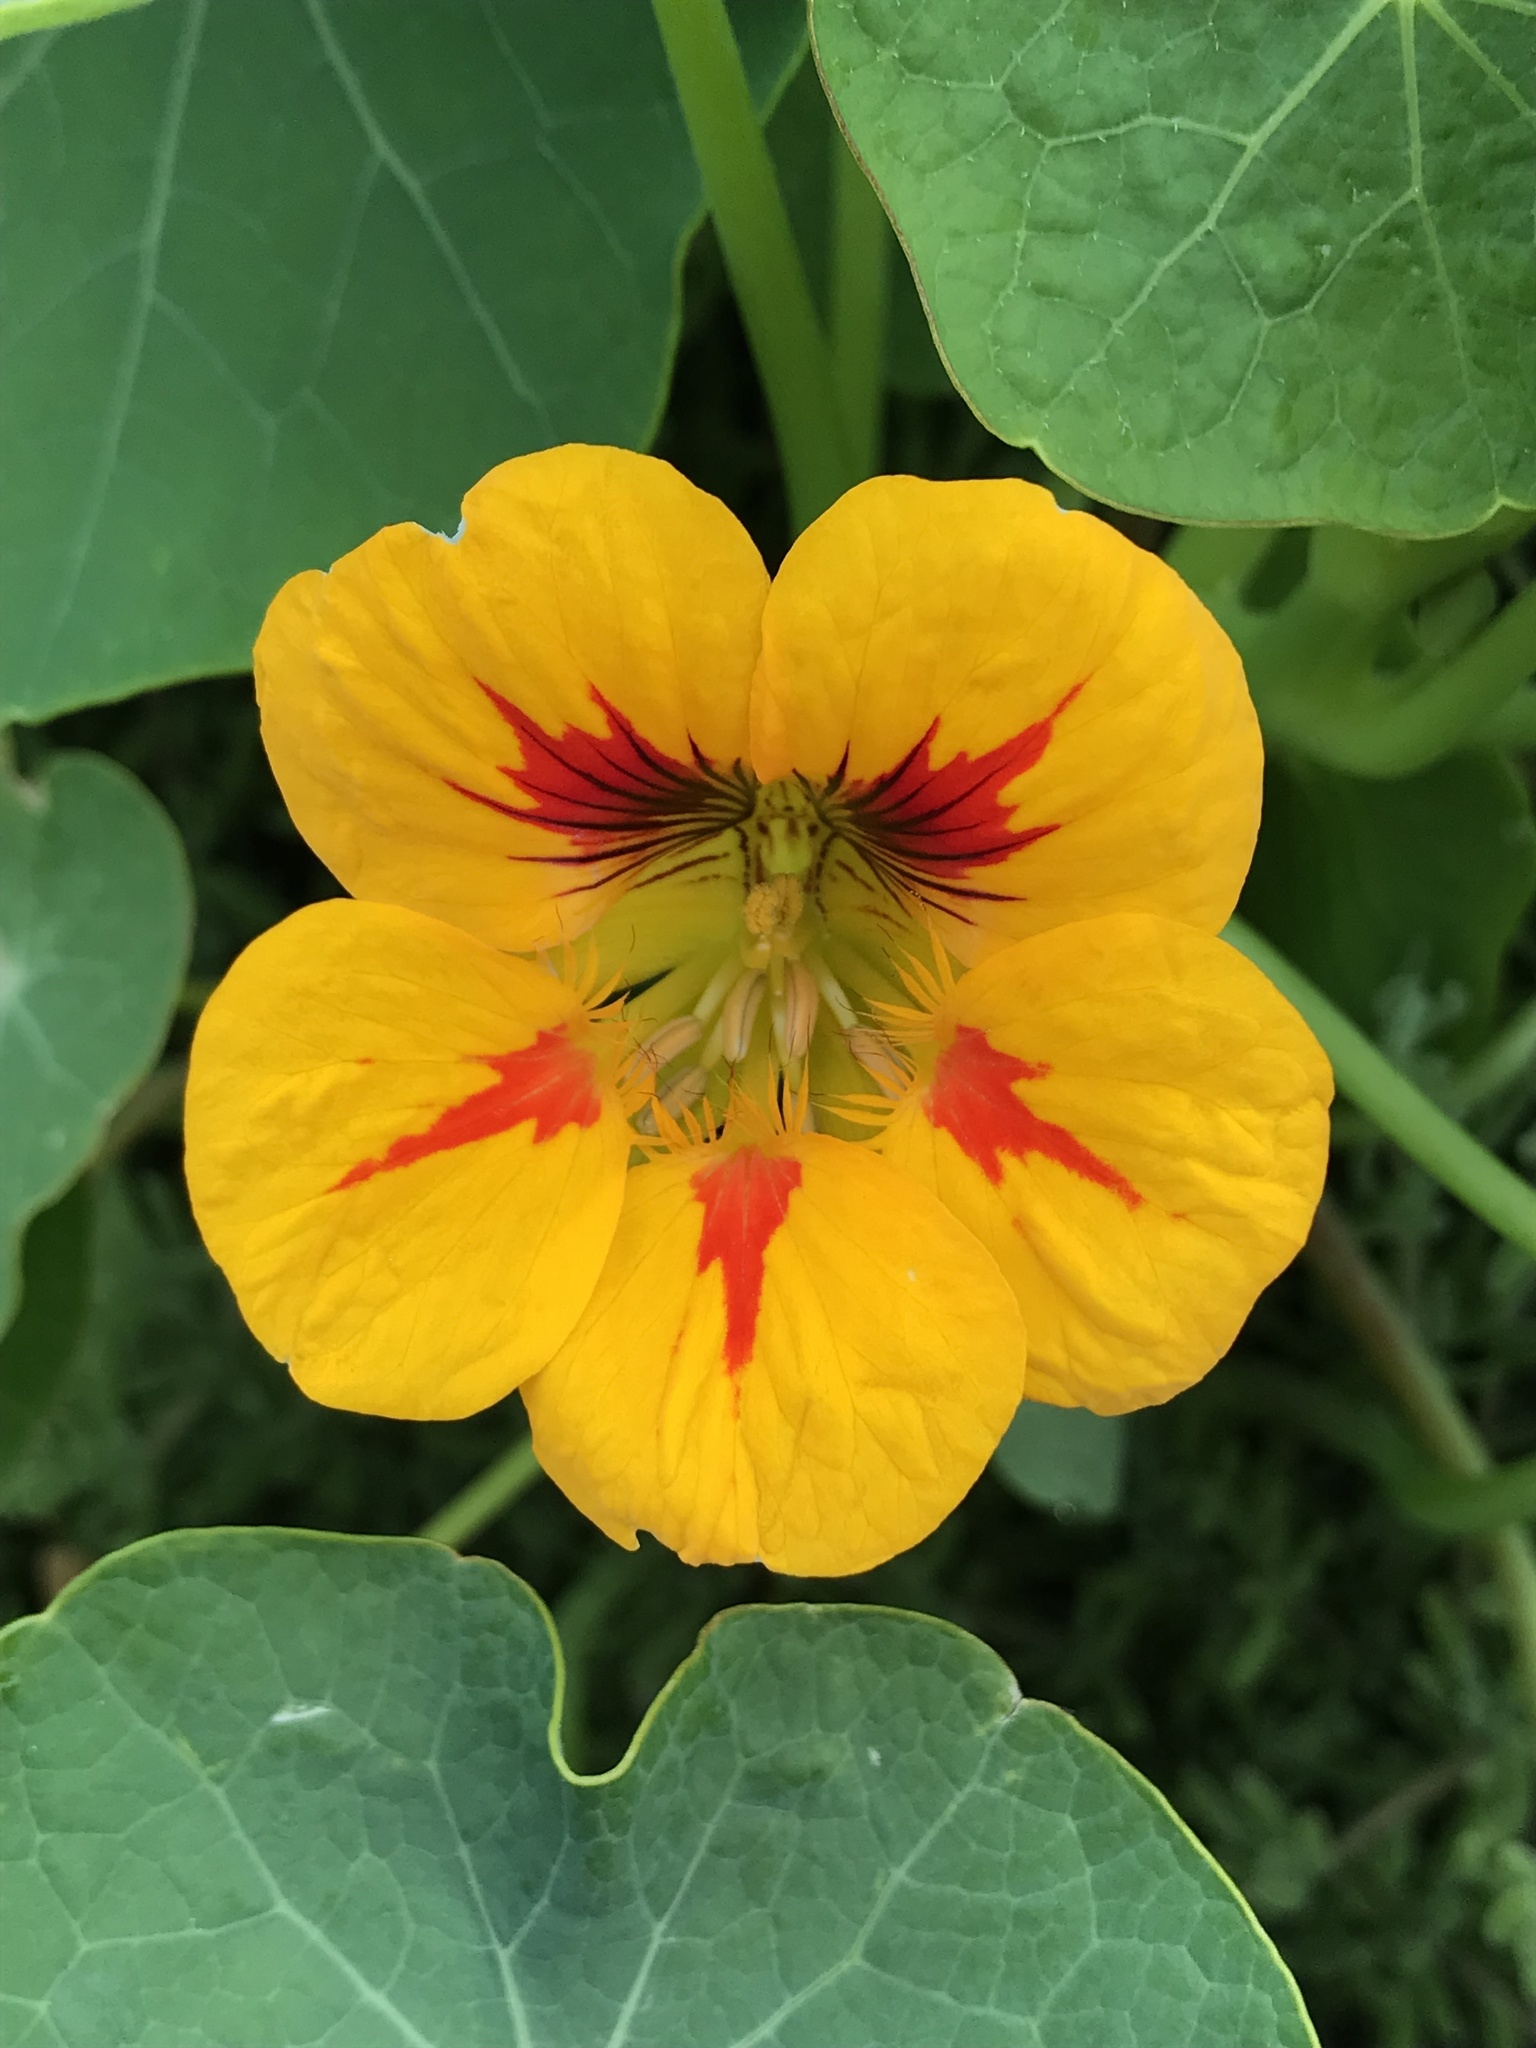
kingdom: Plantae
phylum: Tracheophyta
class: Magnoliopsida
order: Brassicales
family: Tropaeolaceae
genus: Tropaeolum
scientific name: Tropaeolum majus
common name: Nasturtium
